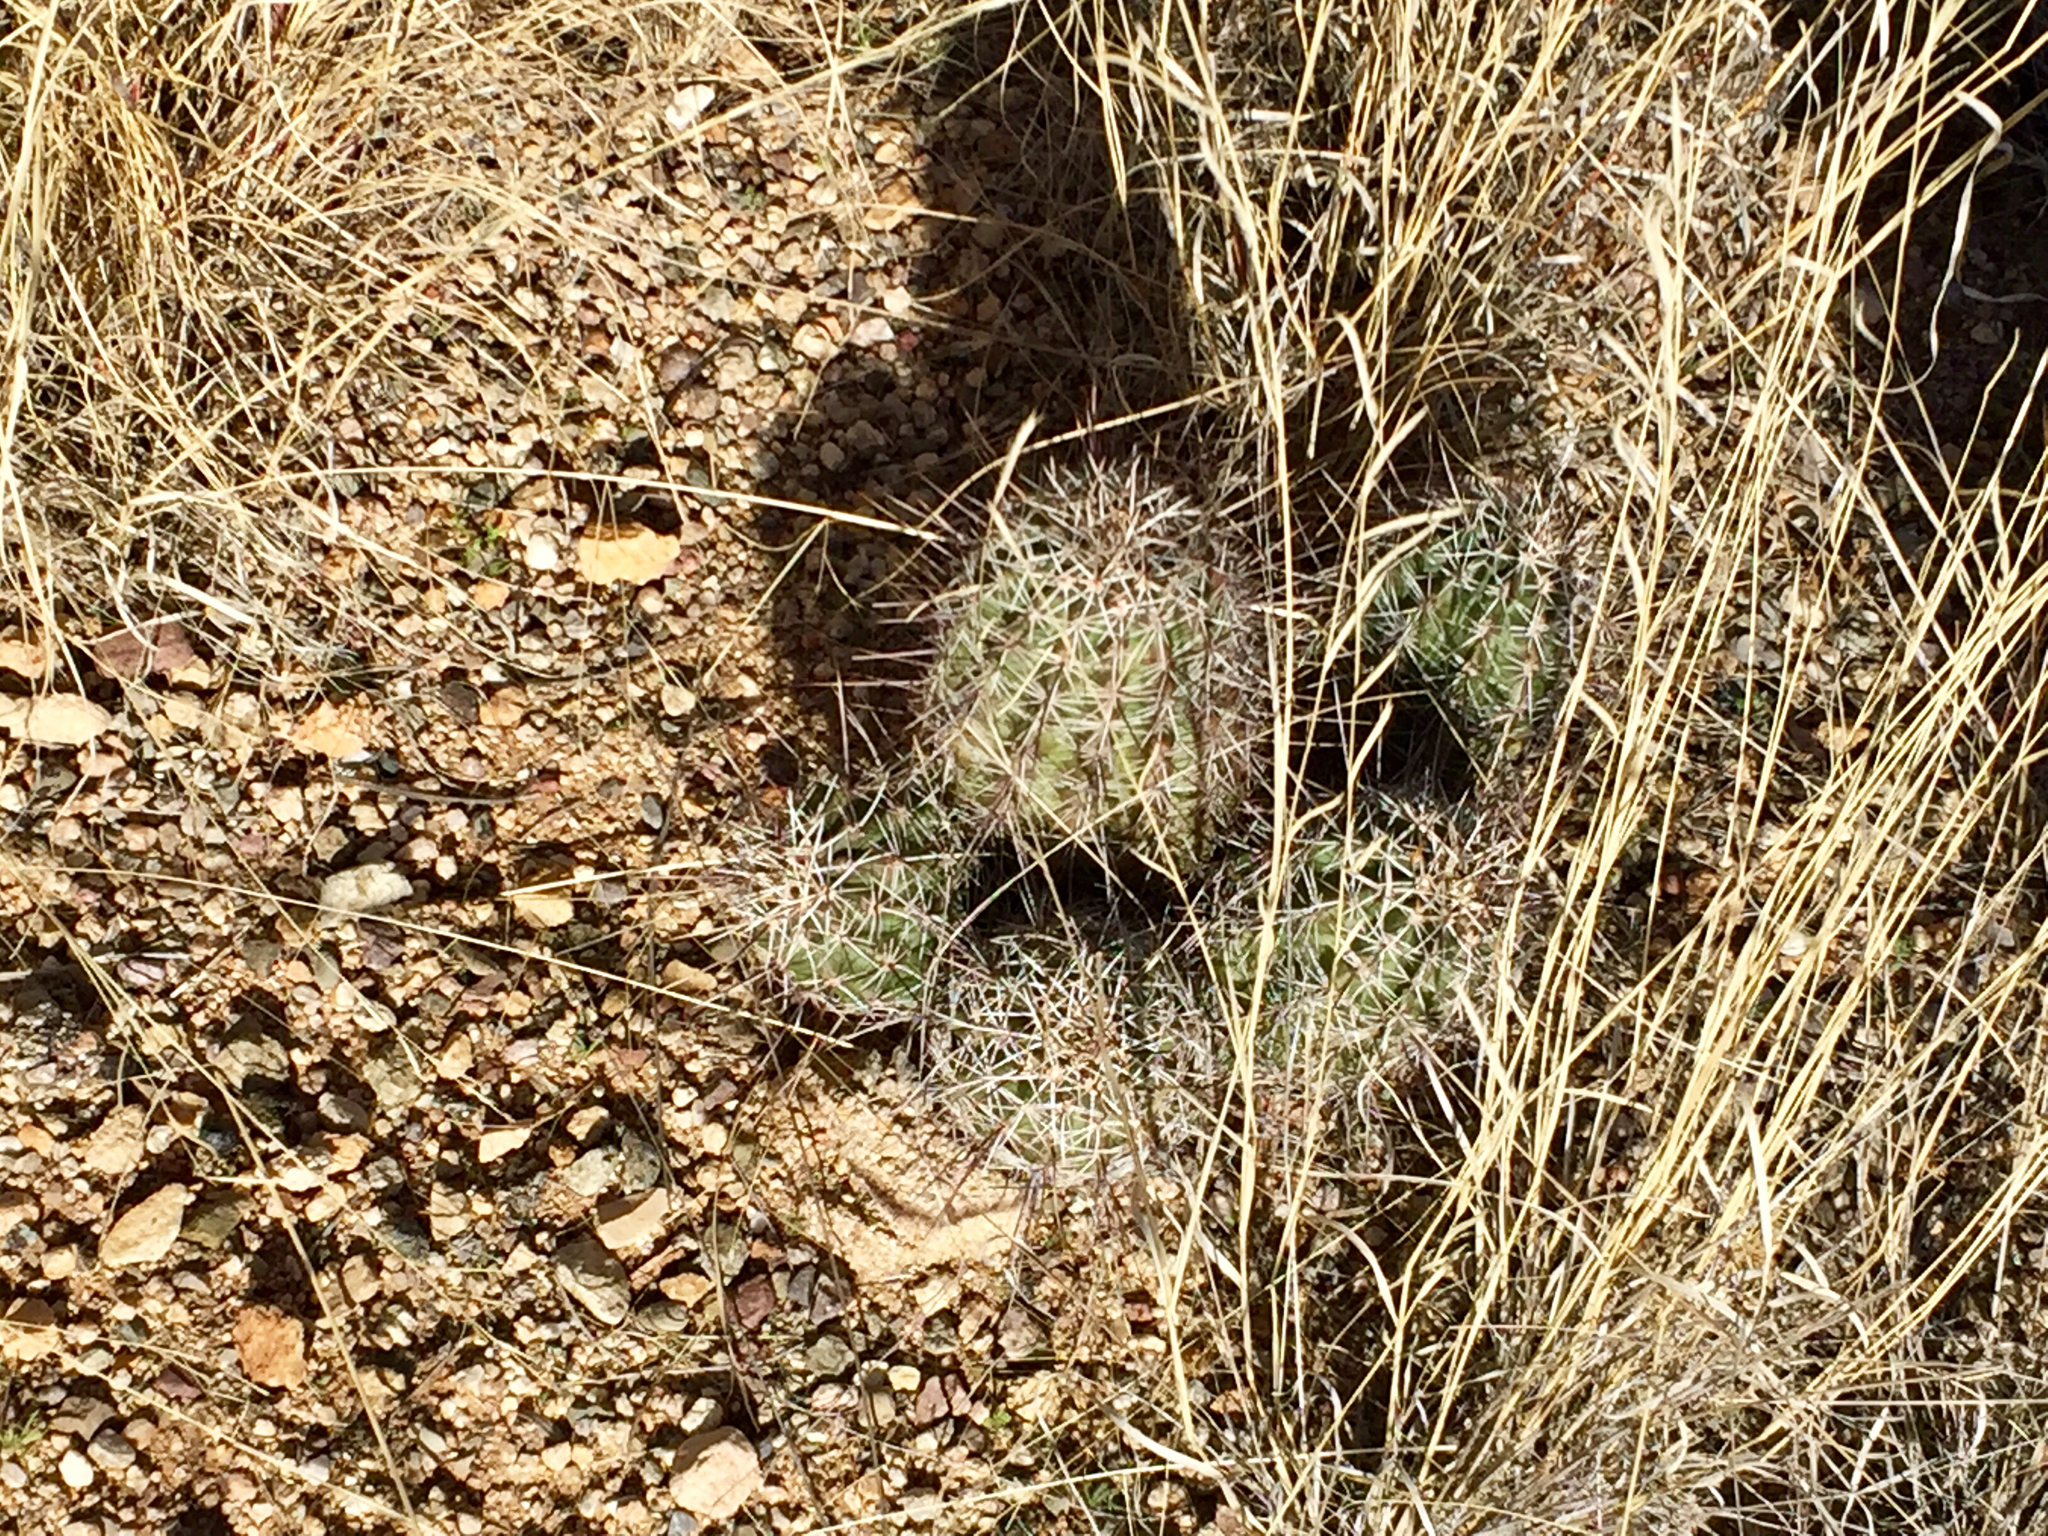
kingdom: Plantae
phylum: Tracheophyta
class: Magnoliopsida
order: Caryophyllales
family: Cactaceae
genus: Echinocereus
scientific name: Echinocereus fendleri
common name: Fendler's hedgehog cactus
